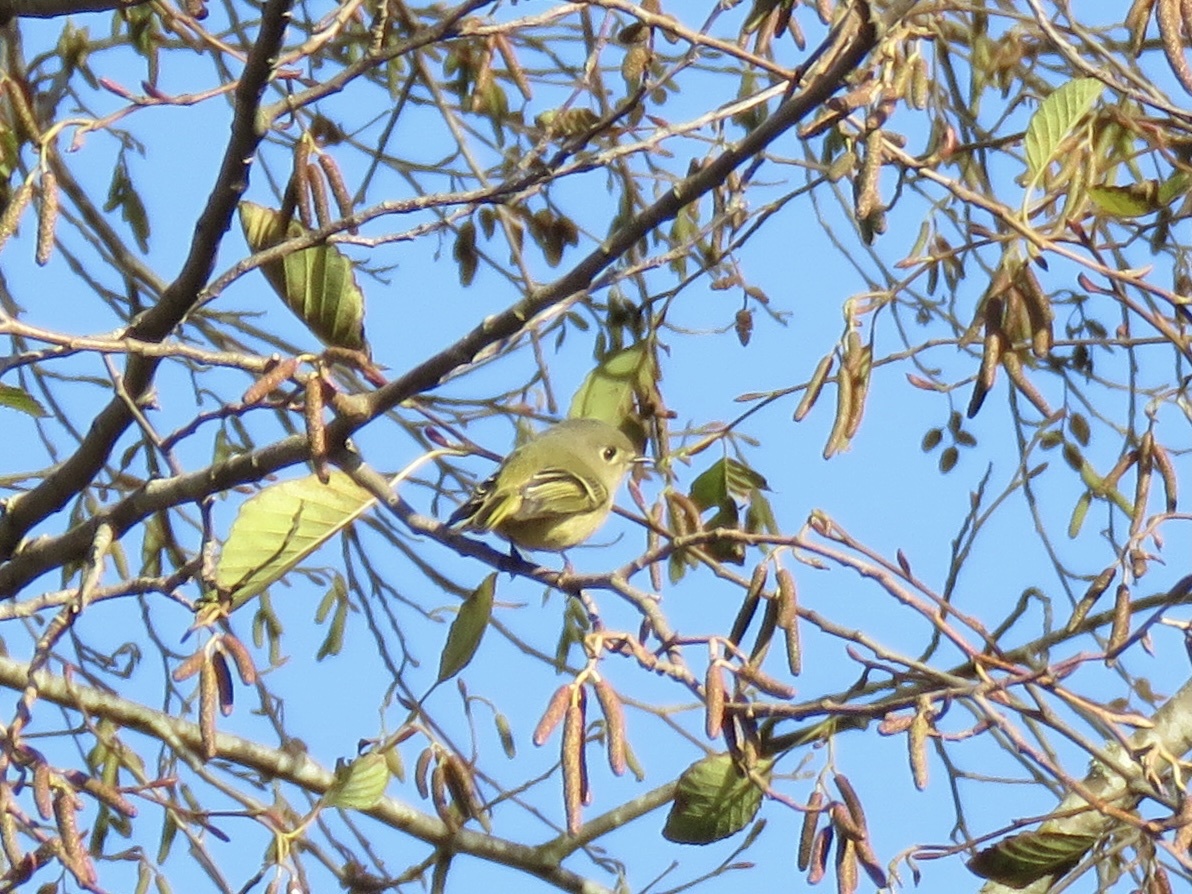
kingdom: Animalia
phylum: Chordata
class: Aves
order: Passeriformes
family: Regulidae
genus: Regulus
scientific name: Regulus calendula
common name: Ruby-crowned kinglet
